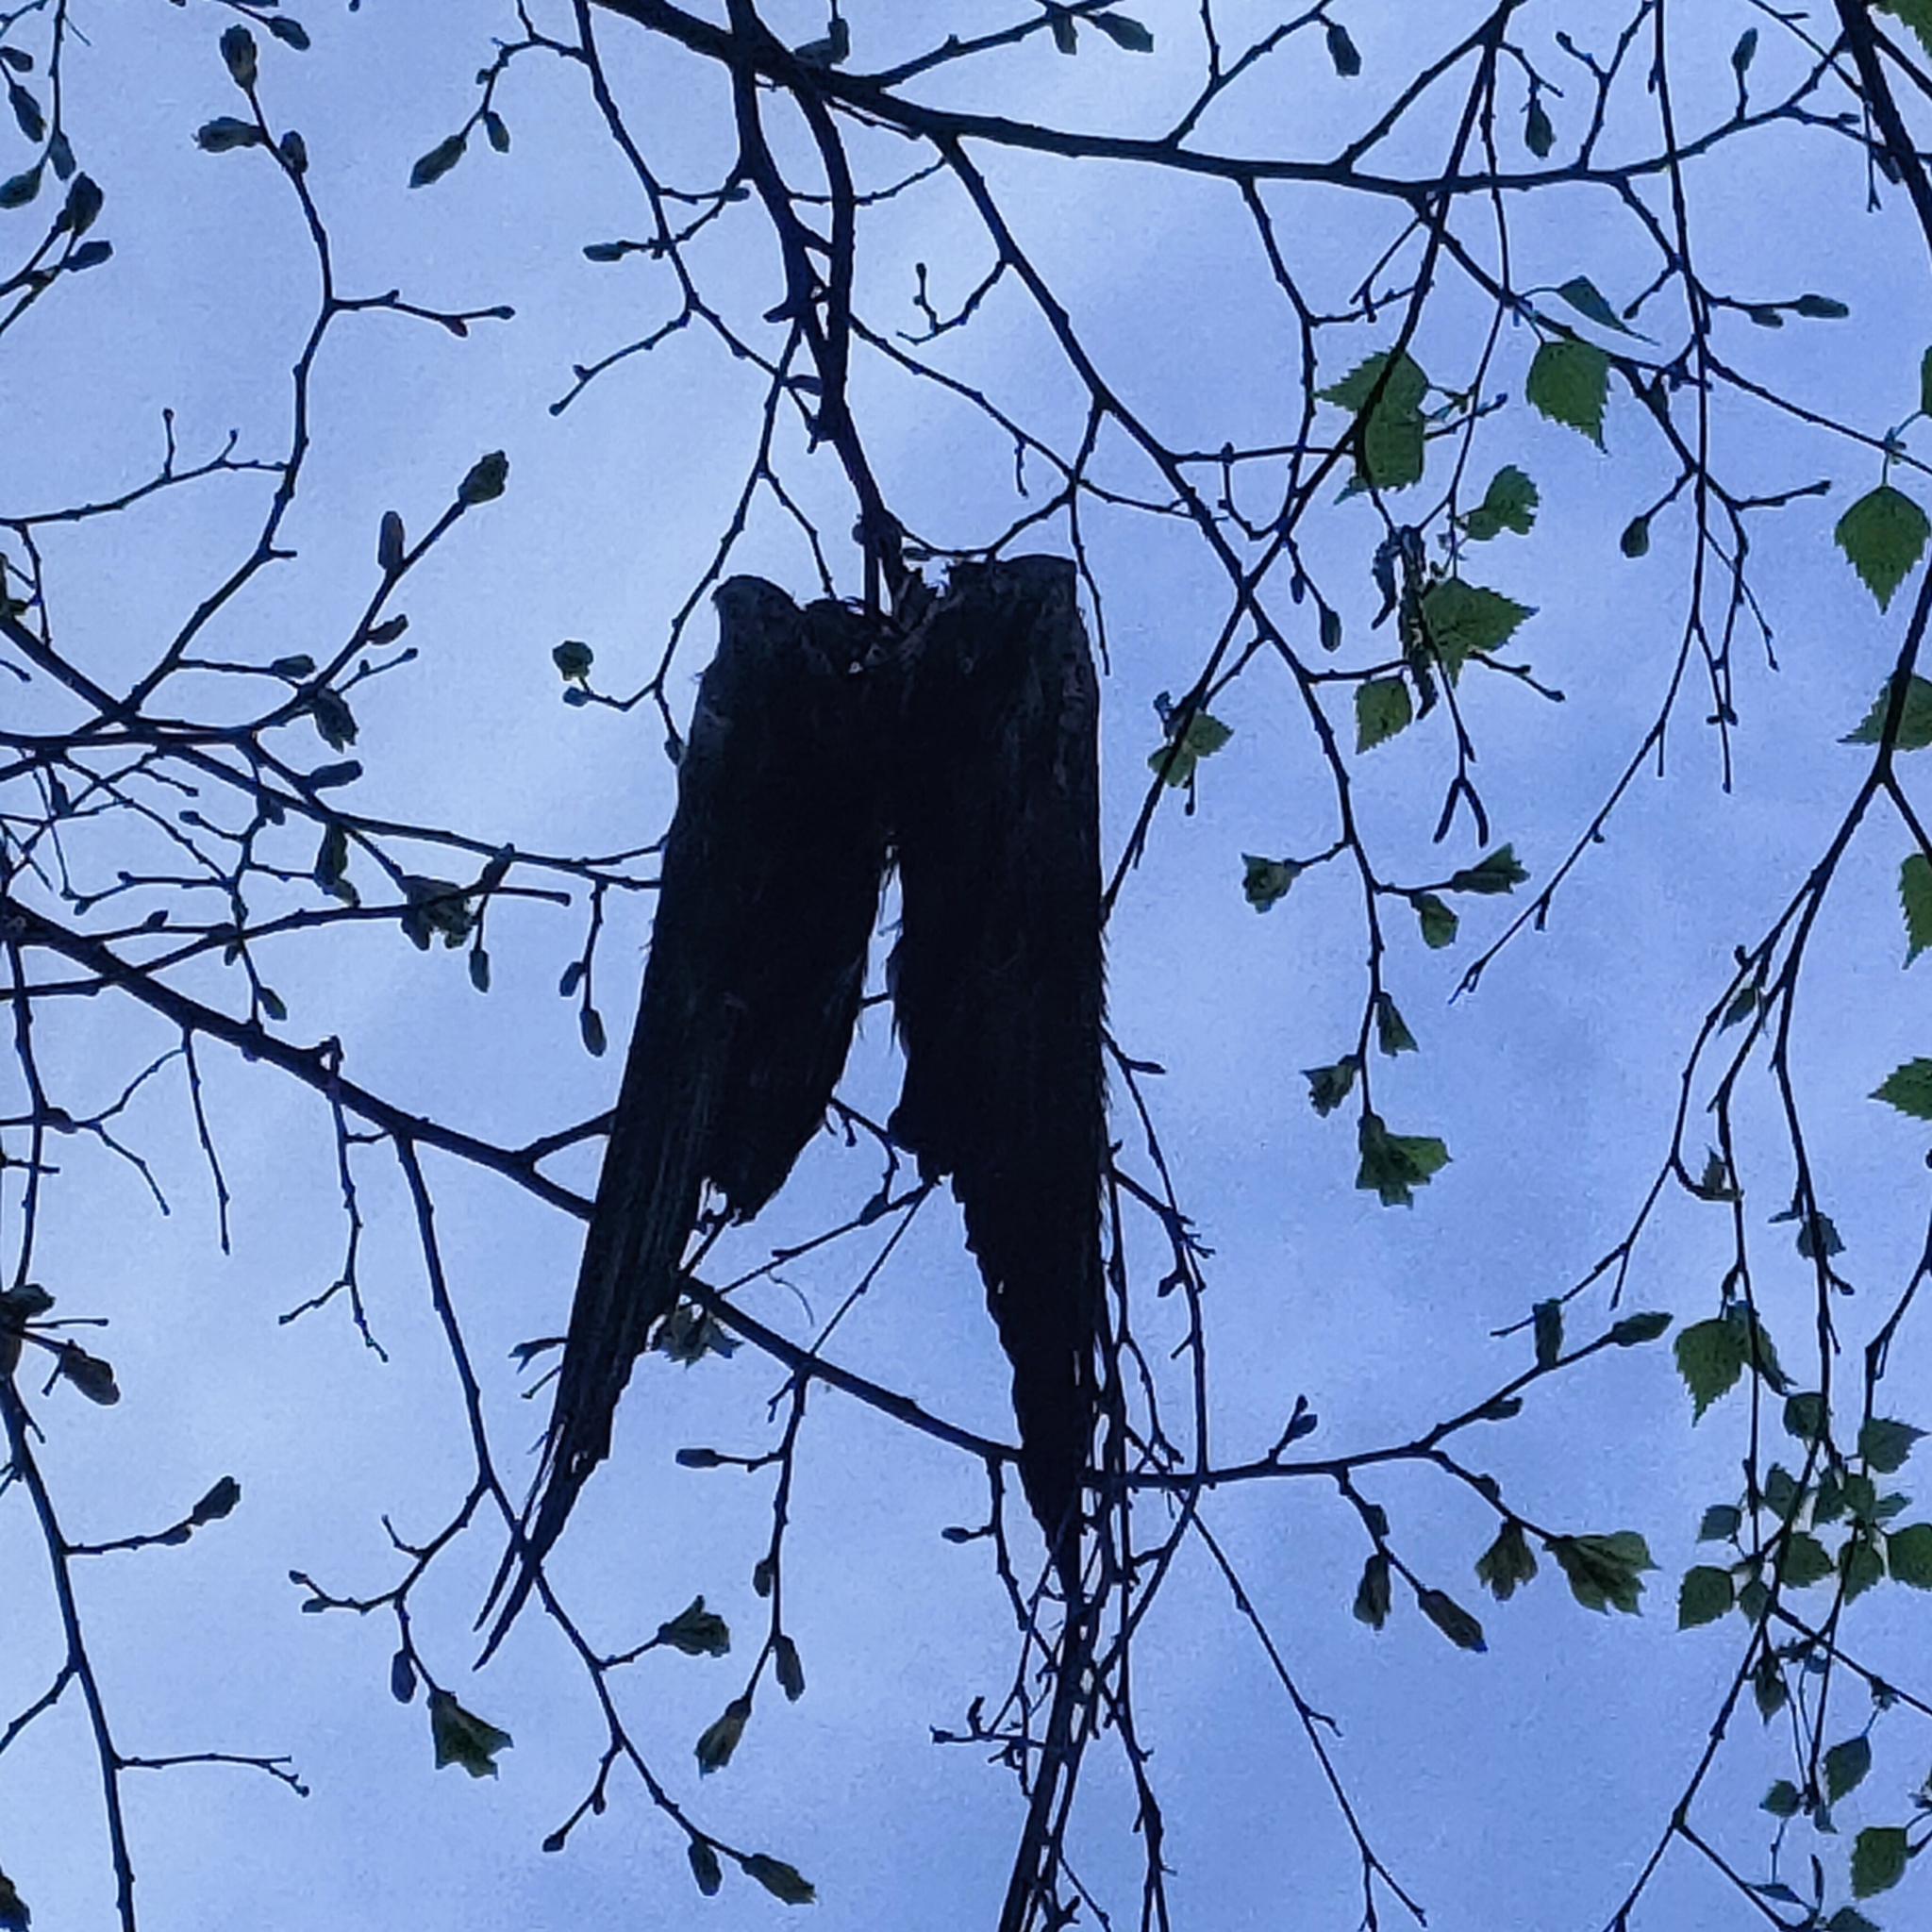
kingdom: Animalia
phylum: Chordata
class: Aves
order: Columbiformes
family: Columbidae
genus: Columba
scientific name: Columba livia
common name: Rock pigeon
